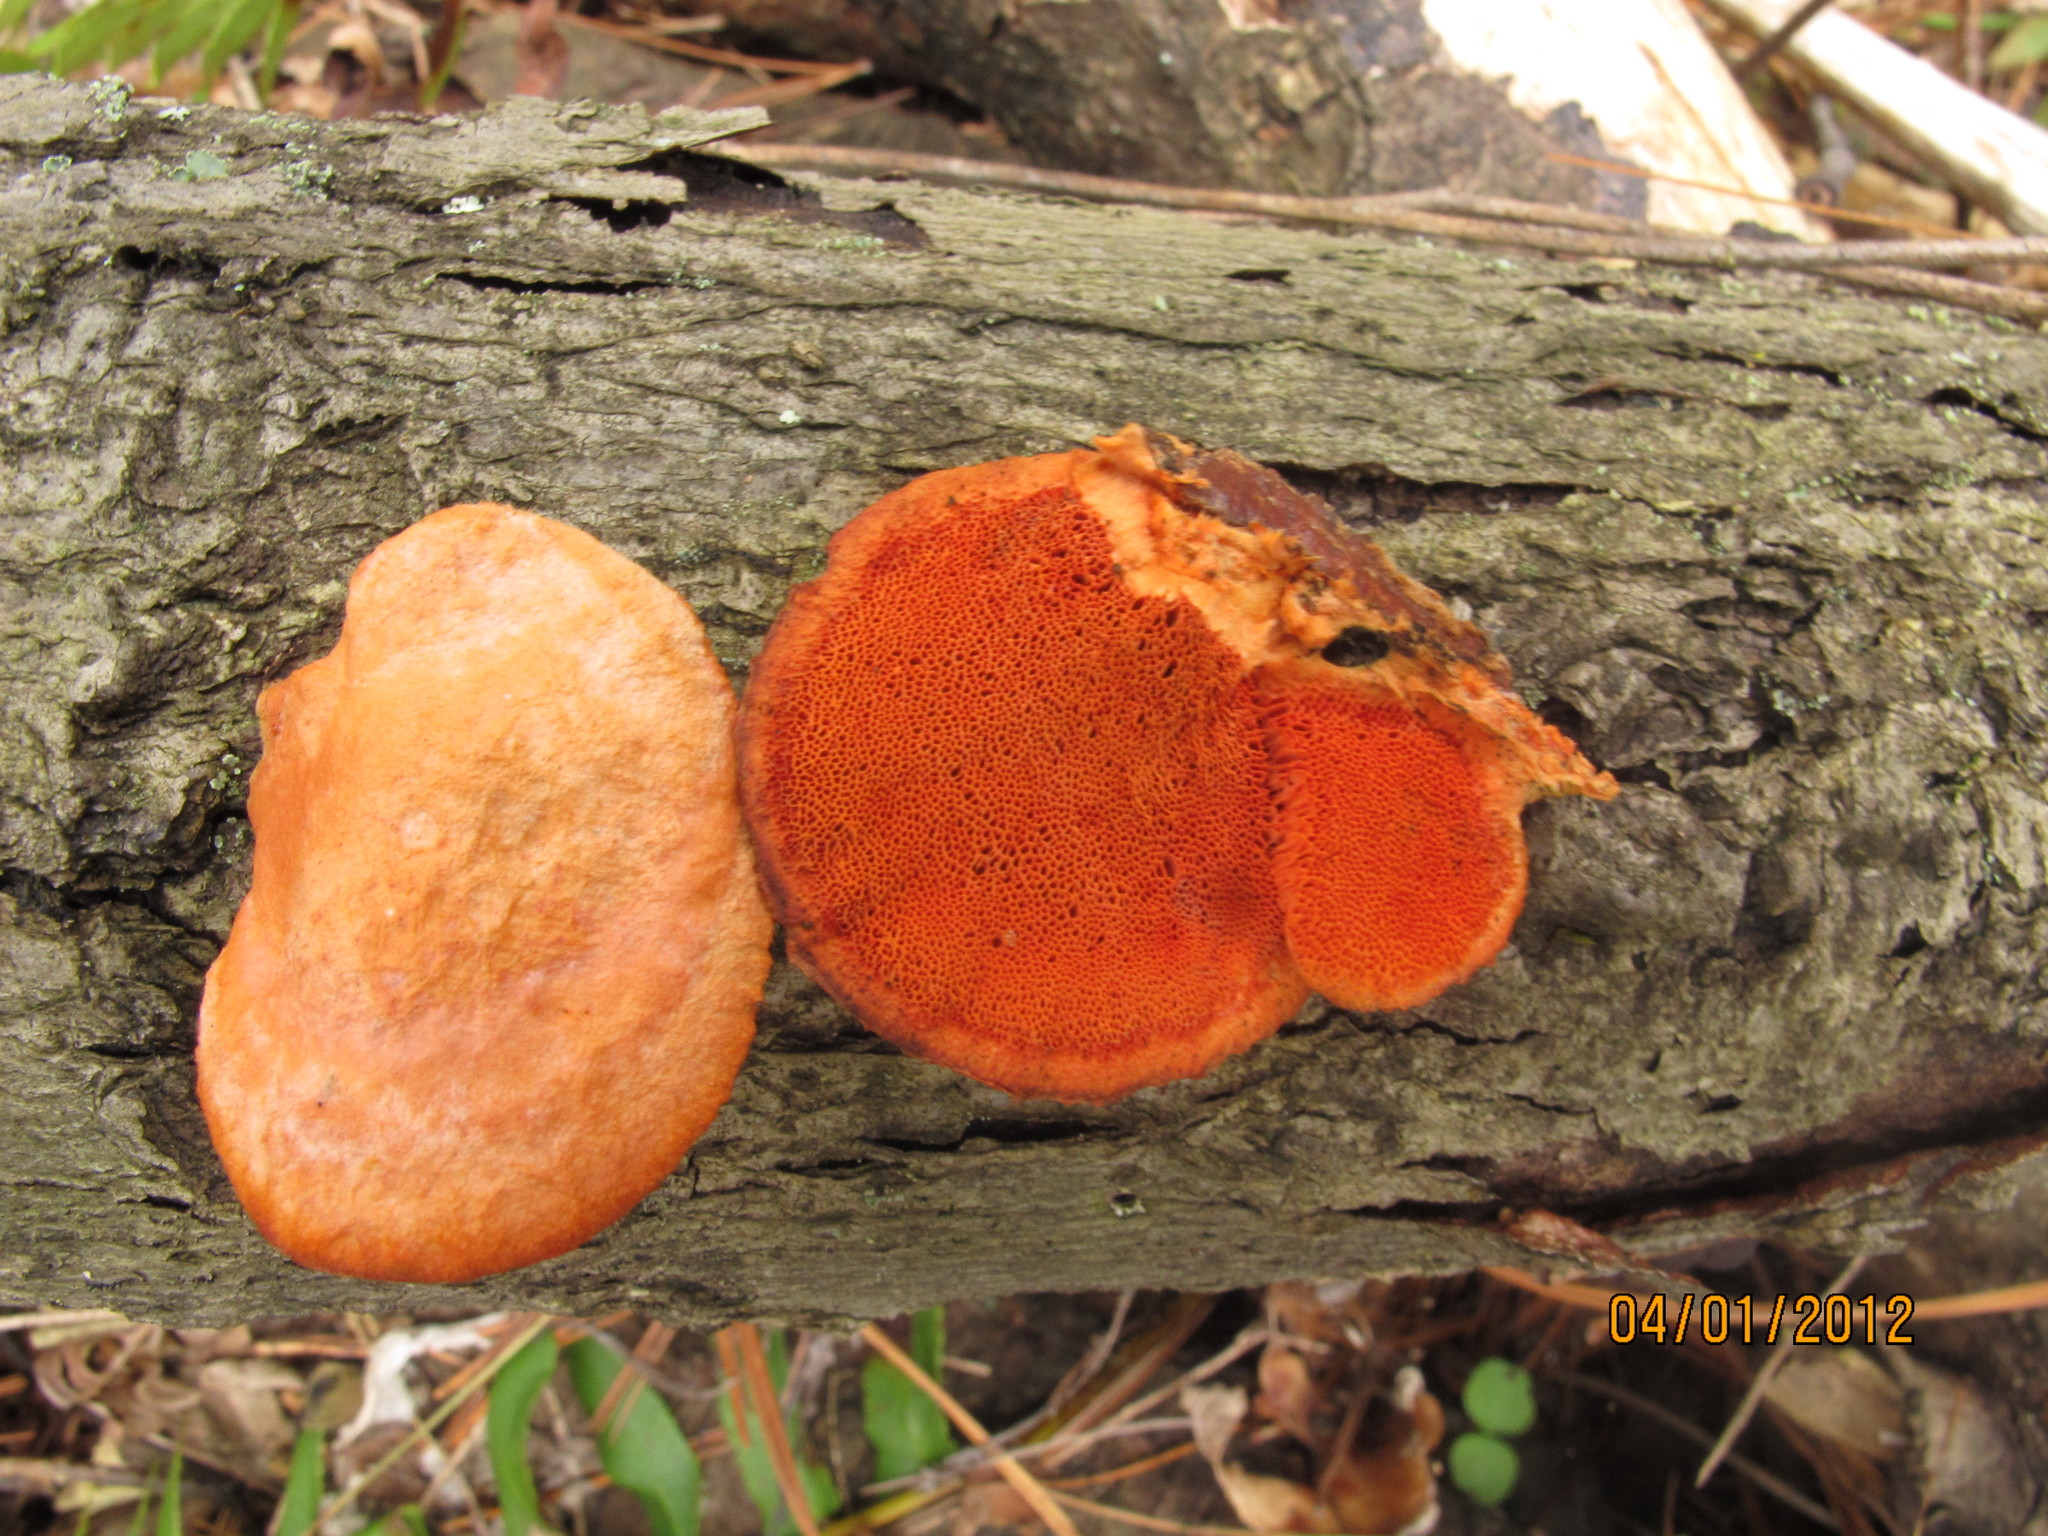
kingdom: Fungi
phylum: Basidiomycota
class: Agaricomycetes
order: Polyporales
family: Polyporaceae
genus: Trametes
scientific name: Trametes cinnabarina
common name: Northern cinnabar polypore
